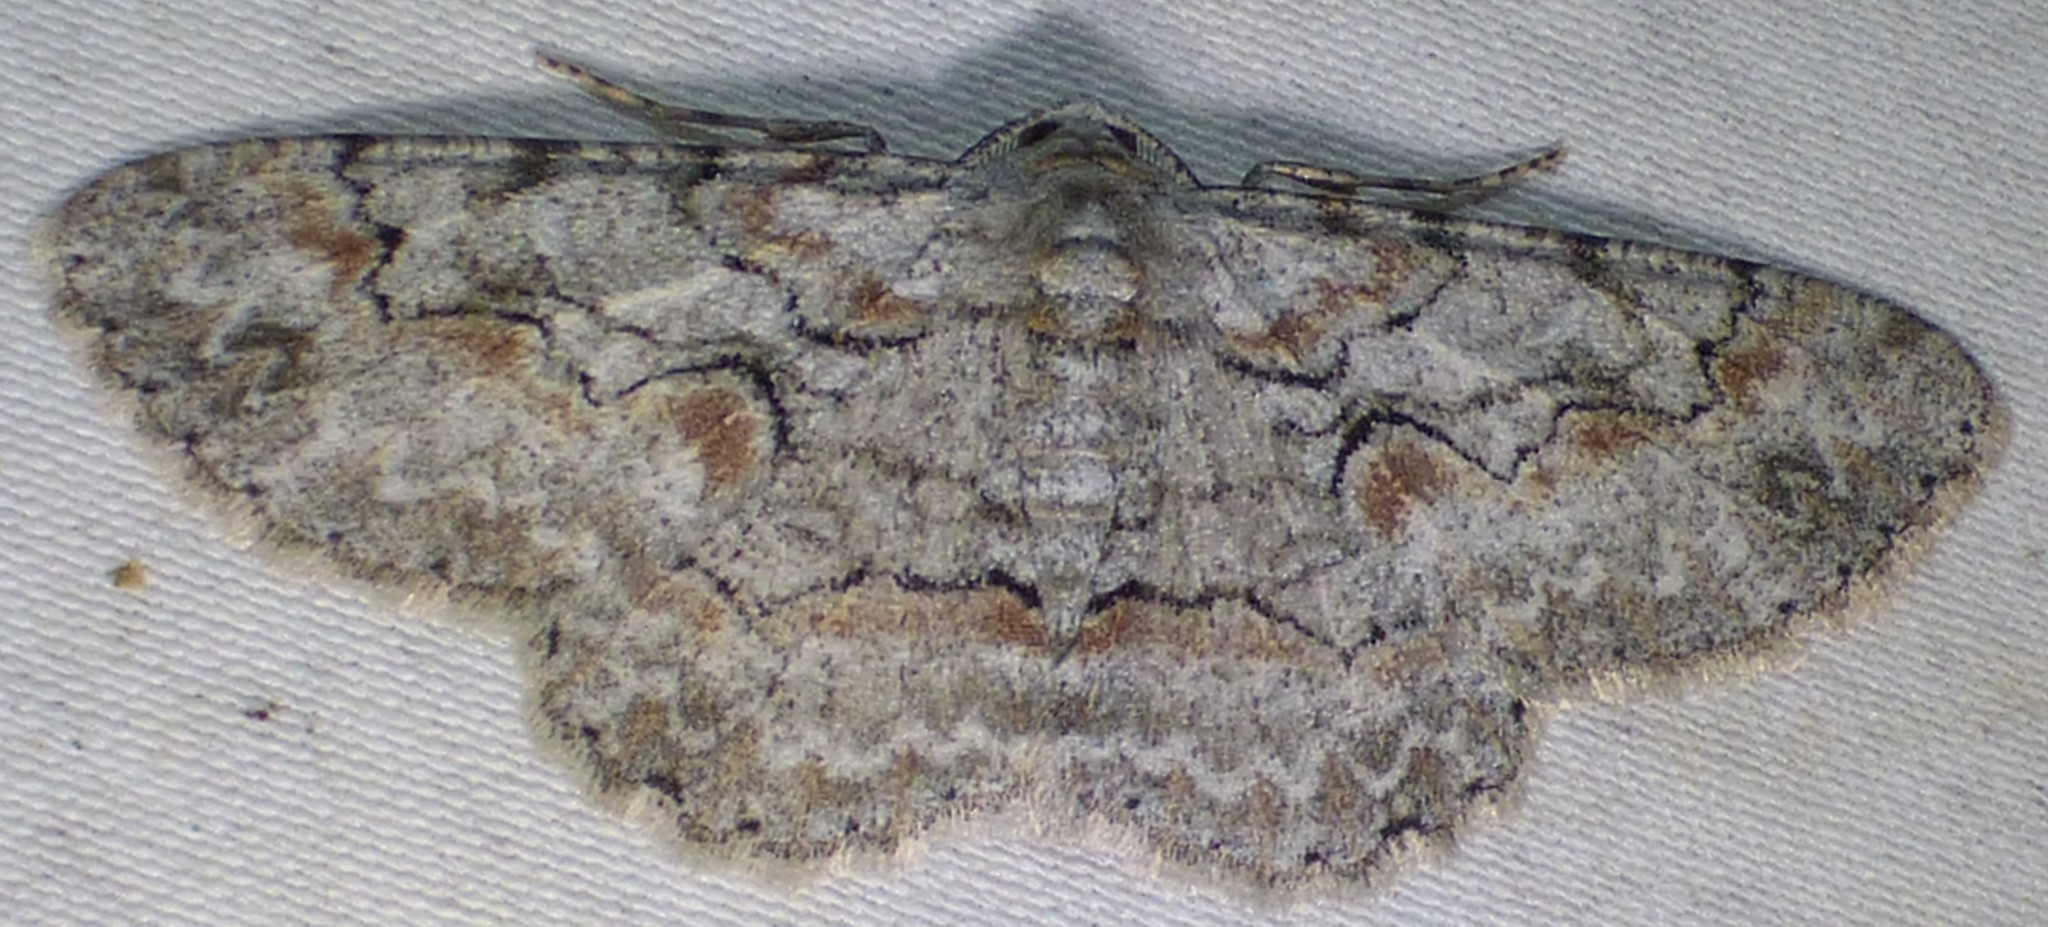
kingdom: Animalia
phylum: Arthropoda
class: Insecta
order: Lepidoptera
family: Geometridae
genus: Iridopsis
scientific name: Iridopsis defectaria
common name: Brown-shaded gray
